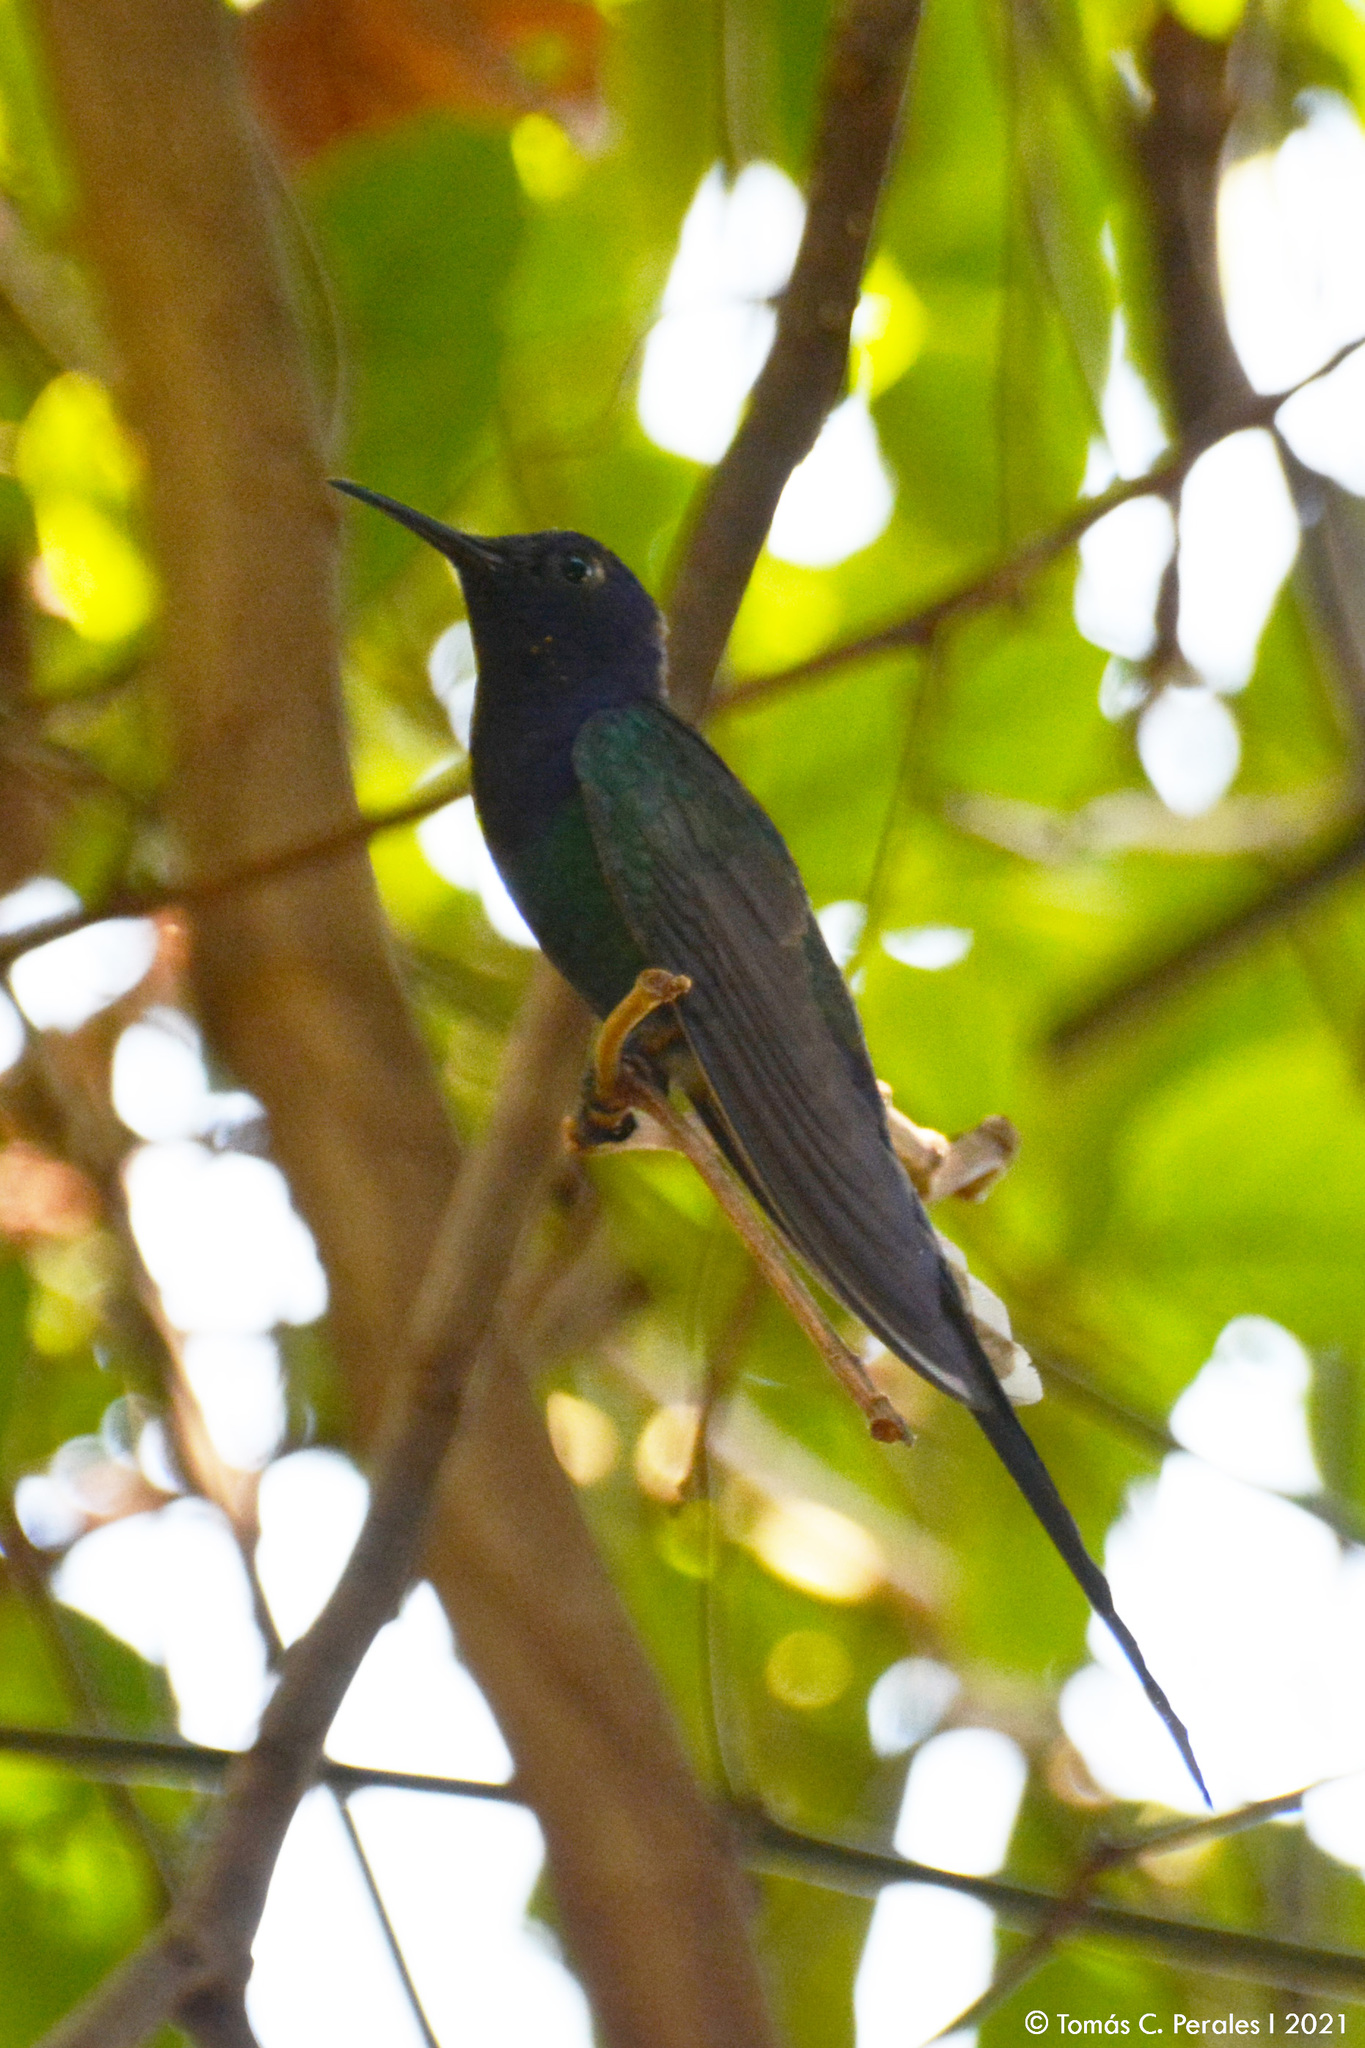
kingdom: Animalia
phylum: Chordata
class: Aves
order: Apodiformes
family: Trochilidae
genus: Eupetomena
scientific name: Eupetomena macroura
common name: Swallow-tailed hummingbird
